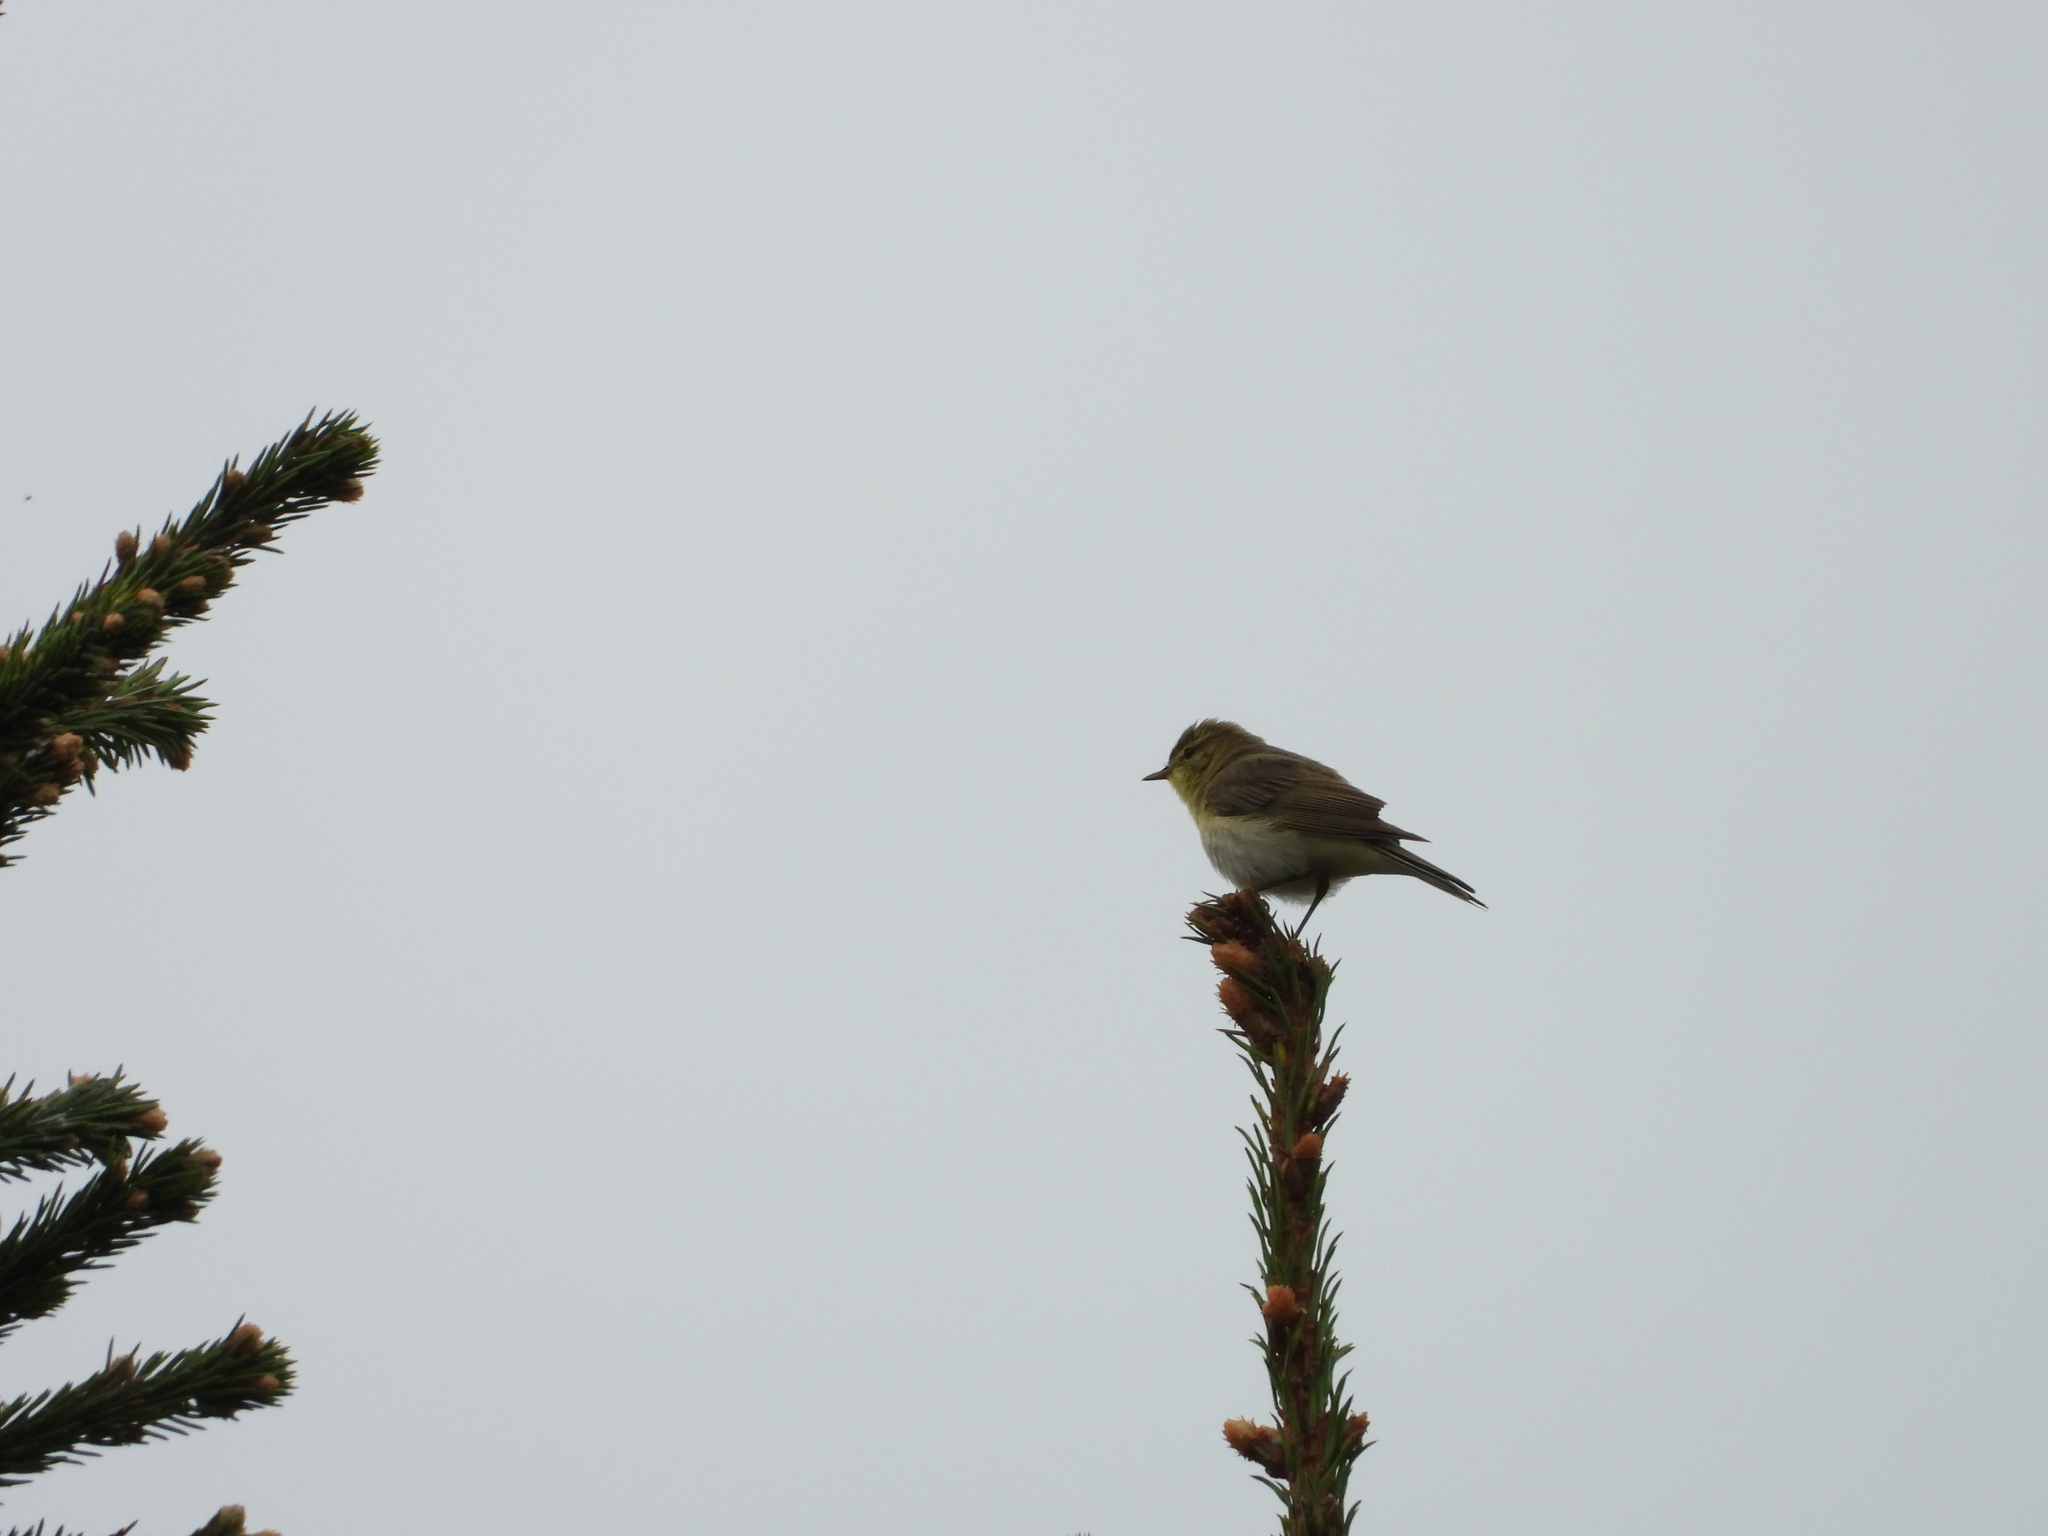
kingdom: Animalia
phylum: Chordata
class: Aves
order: Passeriformes
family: Phylloscopidae
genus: Phylloscopus
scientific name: Phylloscopus trochilus
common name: Willow warbler
